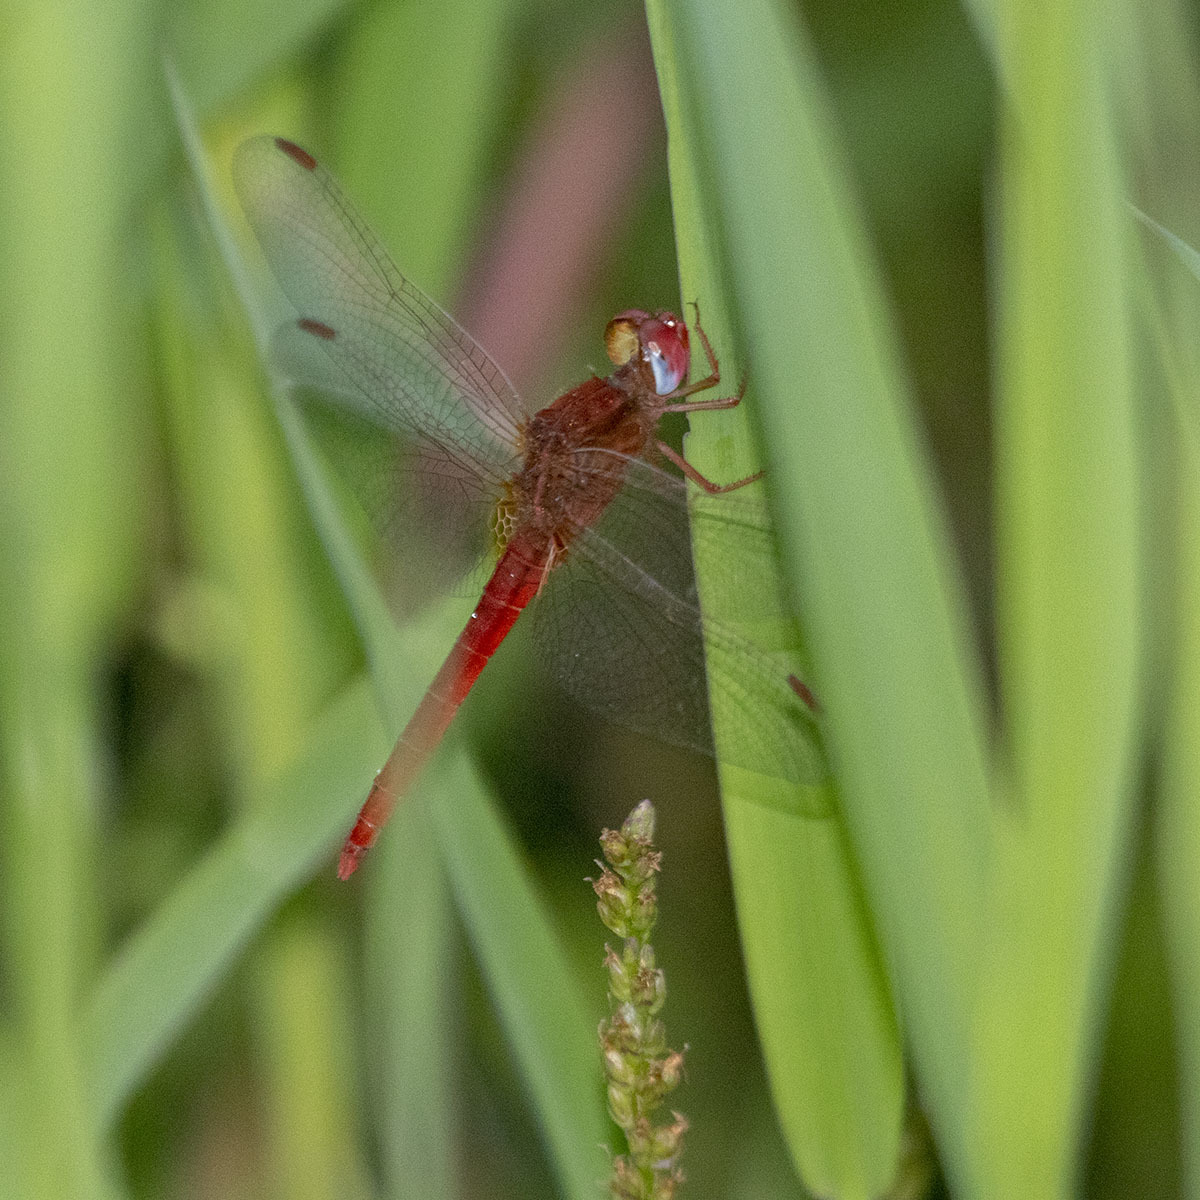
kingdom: Animalia
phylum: Arthropoda
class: Insecta
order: Odonata
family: Libellulidae
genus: Crocothemis
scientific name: Crocothemis servilia
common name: Scarlet skimmer
